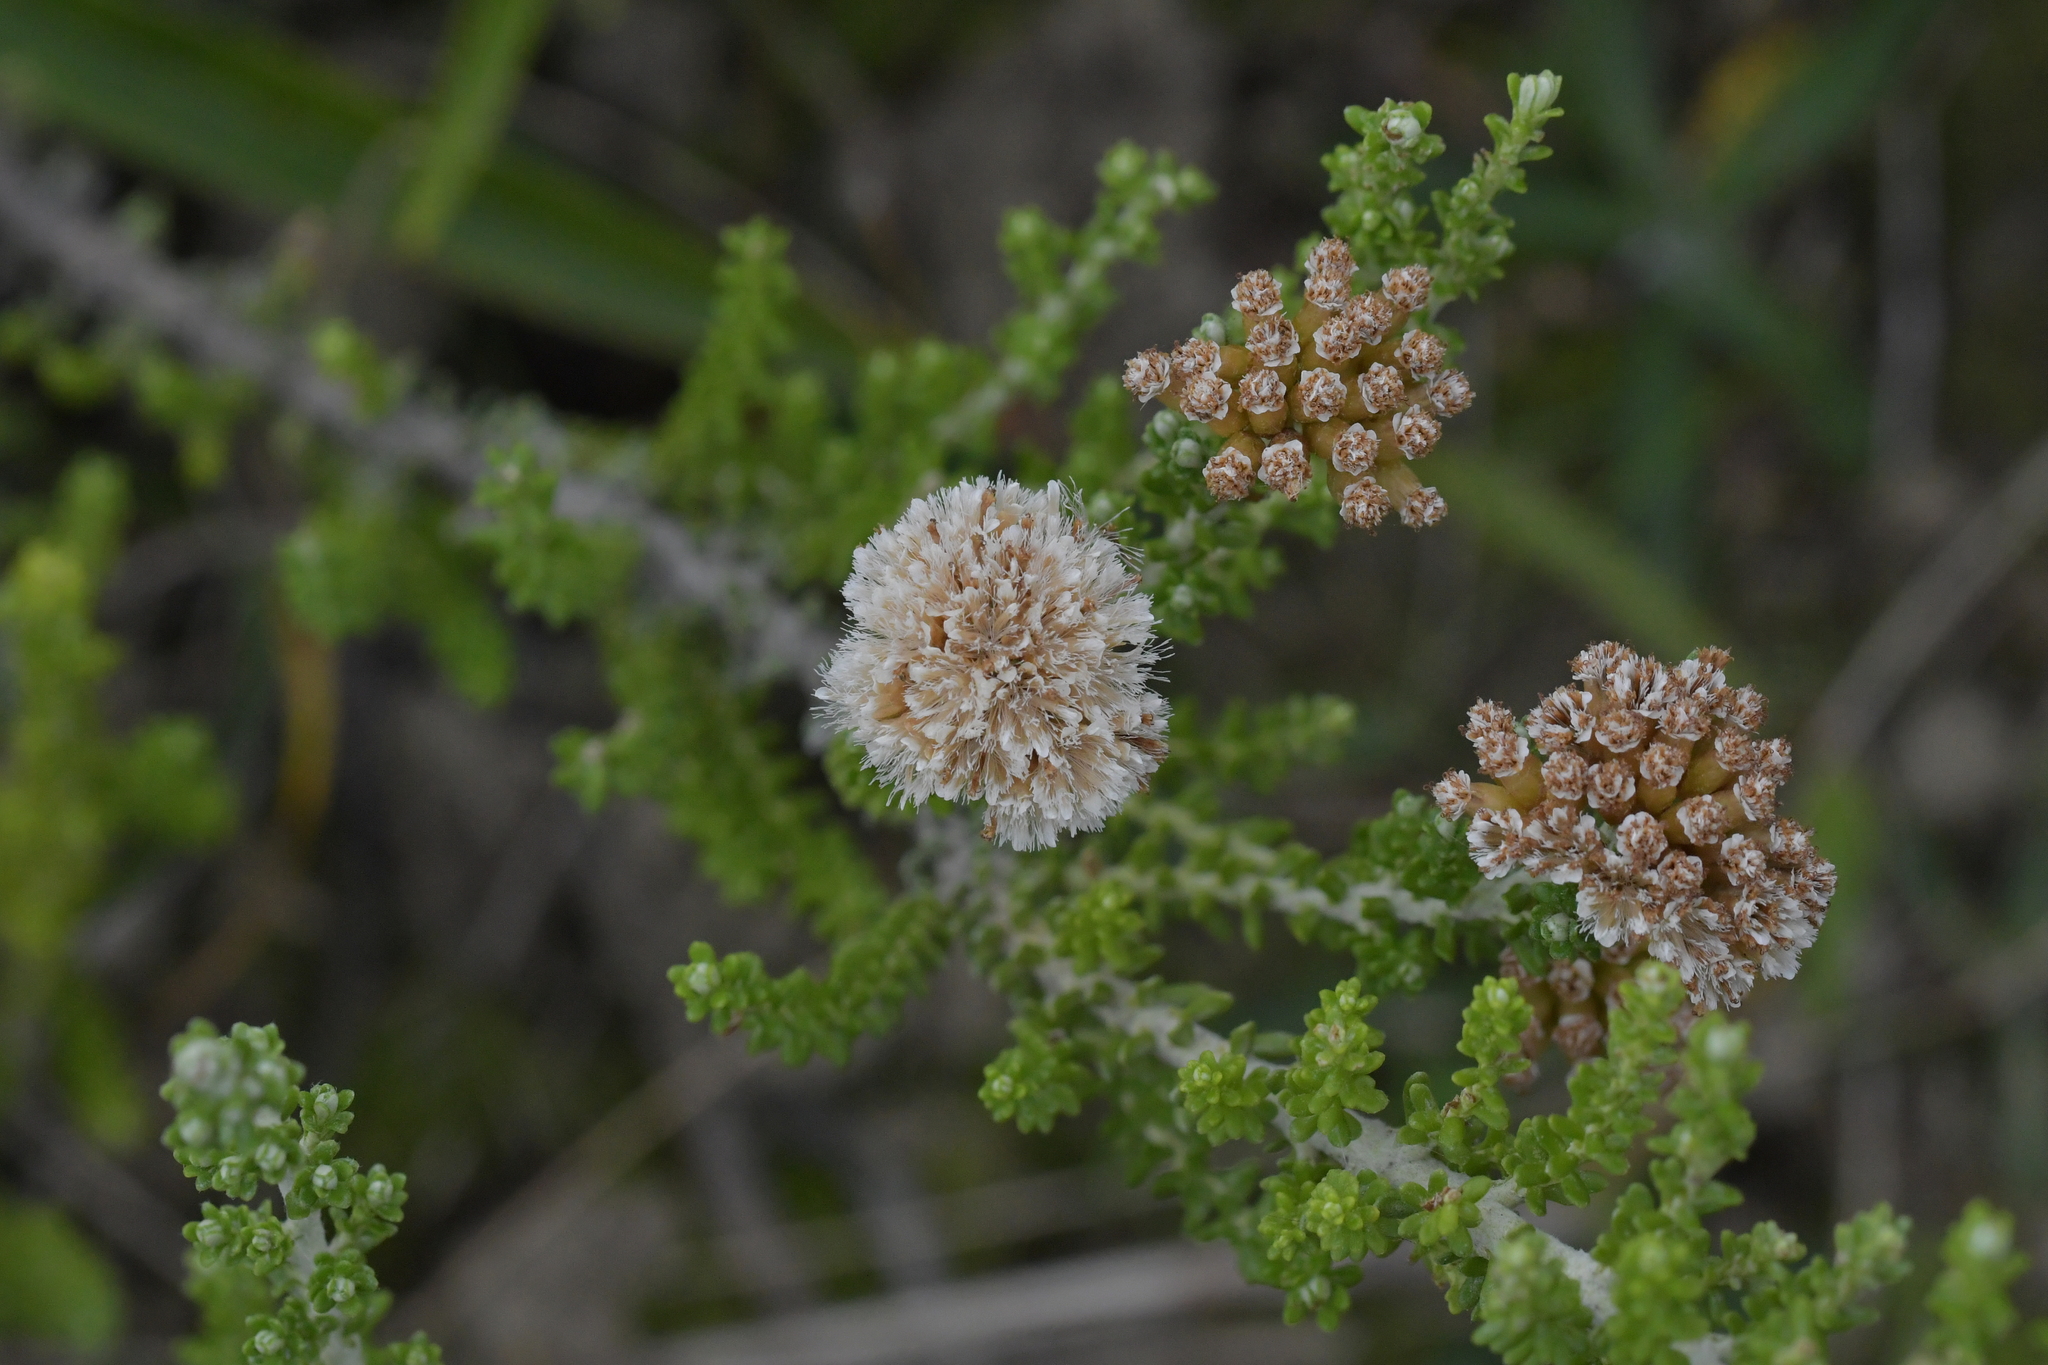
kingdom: Plantae
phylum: Tracheophyta
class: Magnoliopsida
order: Asterales
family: Asteraceae
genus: Ozothamnus
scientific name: Ozothamnus leptophyllus
